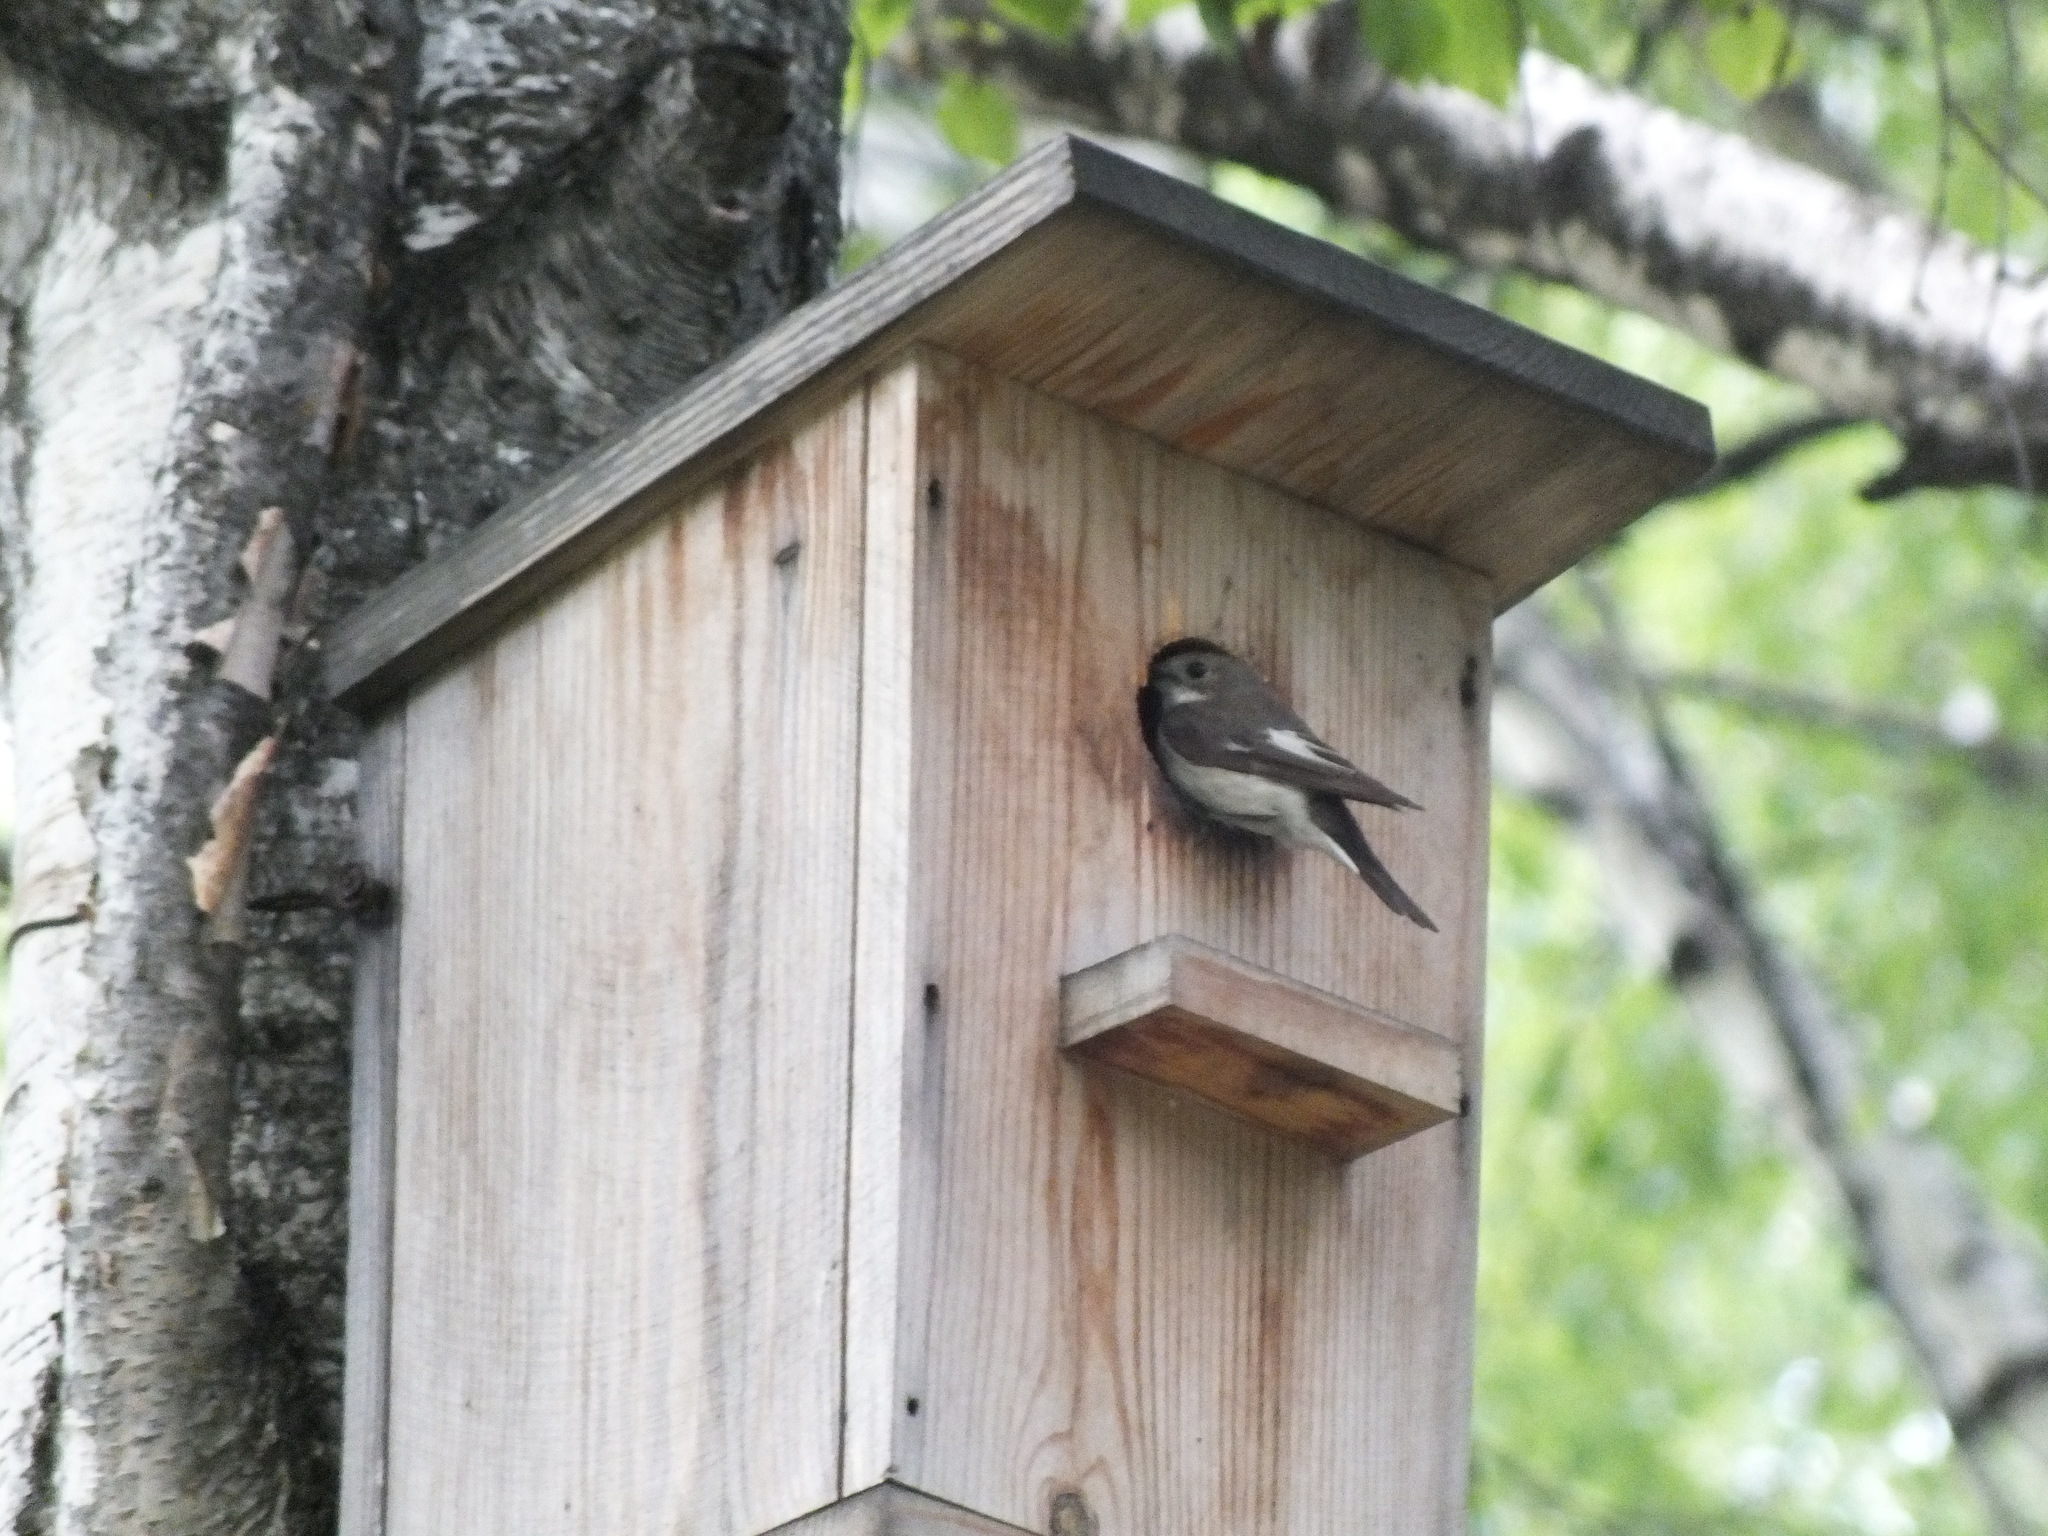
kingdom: Animalia
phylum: Chordata
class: Aves
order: Passeriformes
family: Muscicapidae
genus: Ficedula
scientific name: Ficedula hypoleuca
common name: European pied flycatcher
